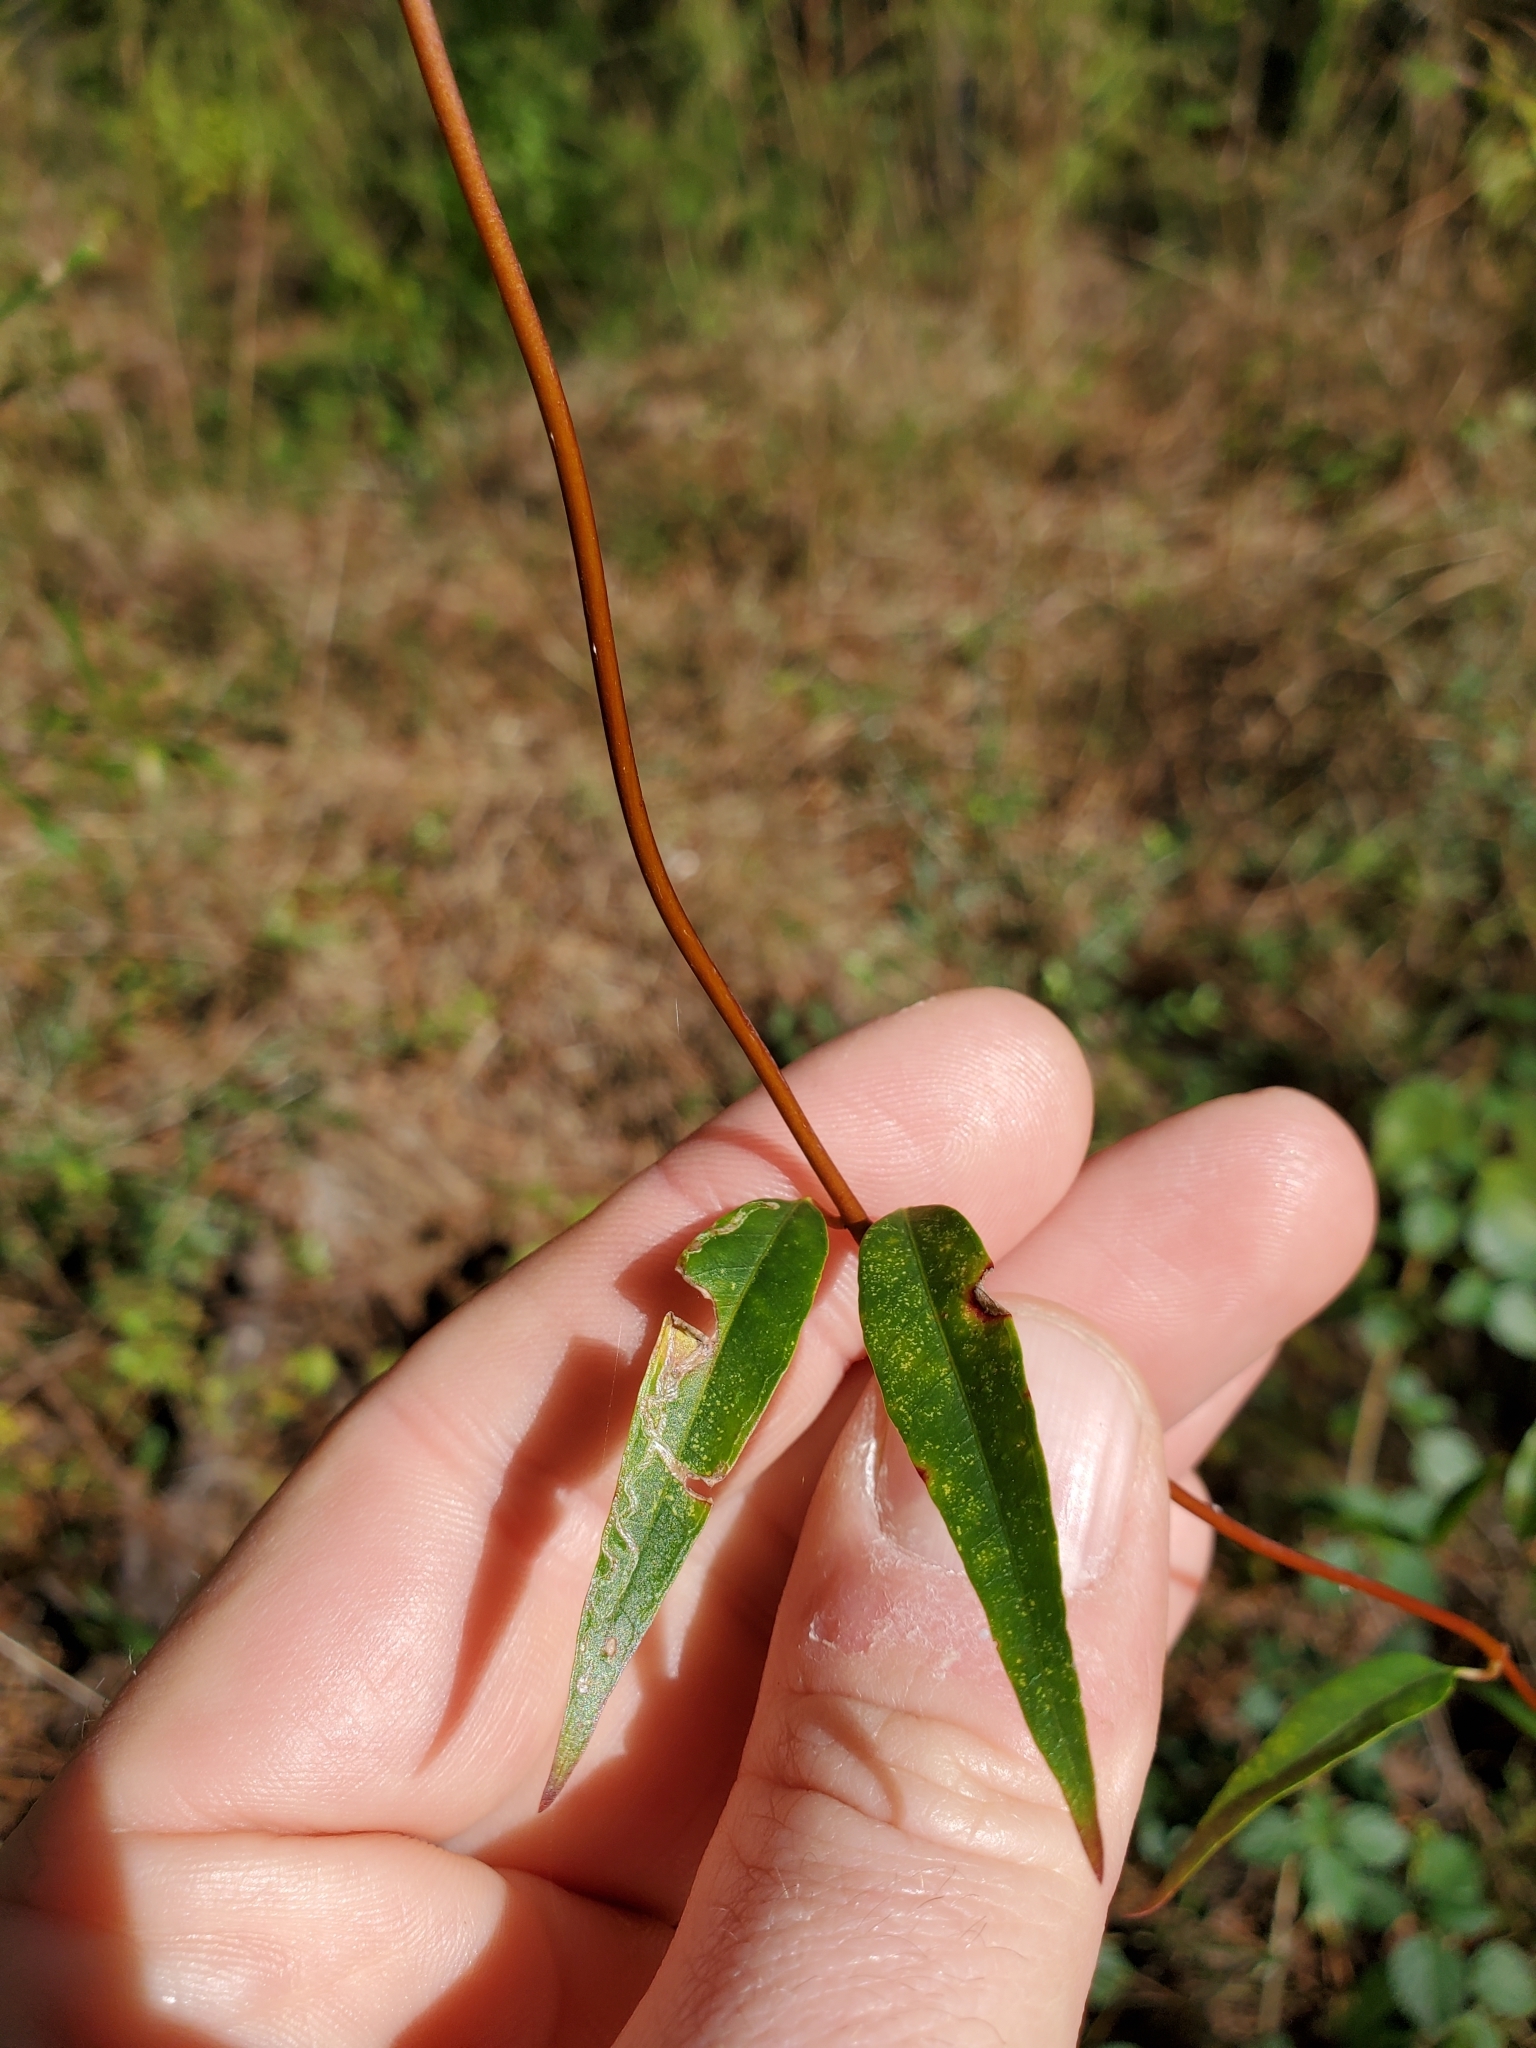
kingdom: Plantae
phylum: Tracheophyta
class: Magnoliopsida
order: Gentianales
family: Gelsemiaceae
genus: Gelsemium
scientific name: Gelsemium sempervirens
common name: Carolina-jasmine
